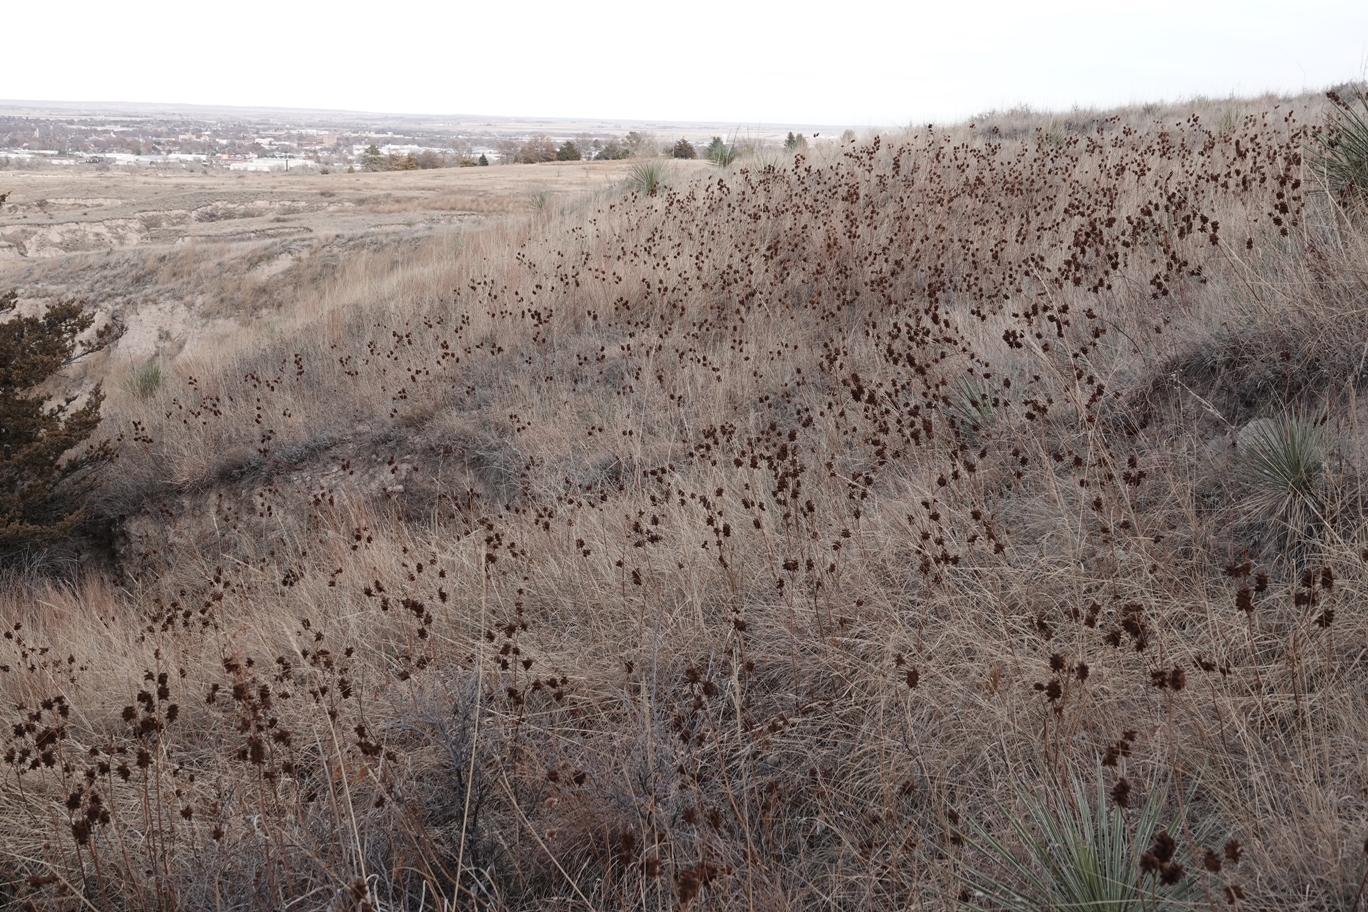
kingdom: Plantae
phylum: Tracheophyta
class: Magnoliopsida
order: Fabales
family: Fabaceae
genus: Glycyrrhiza
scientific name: Glycyrrhiza lepidota
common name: American liquorice
